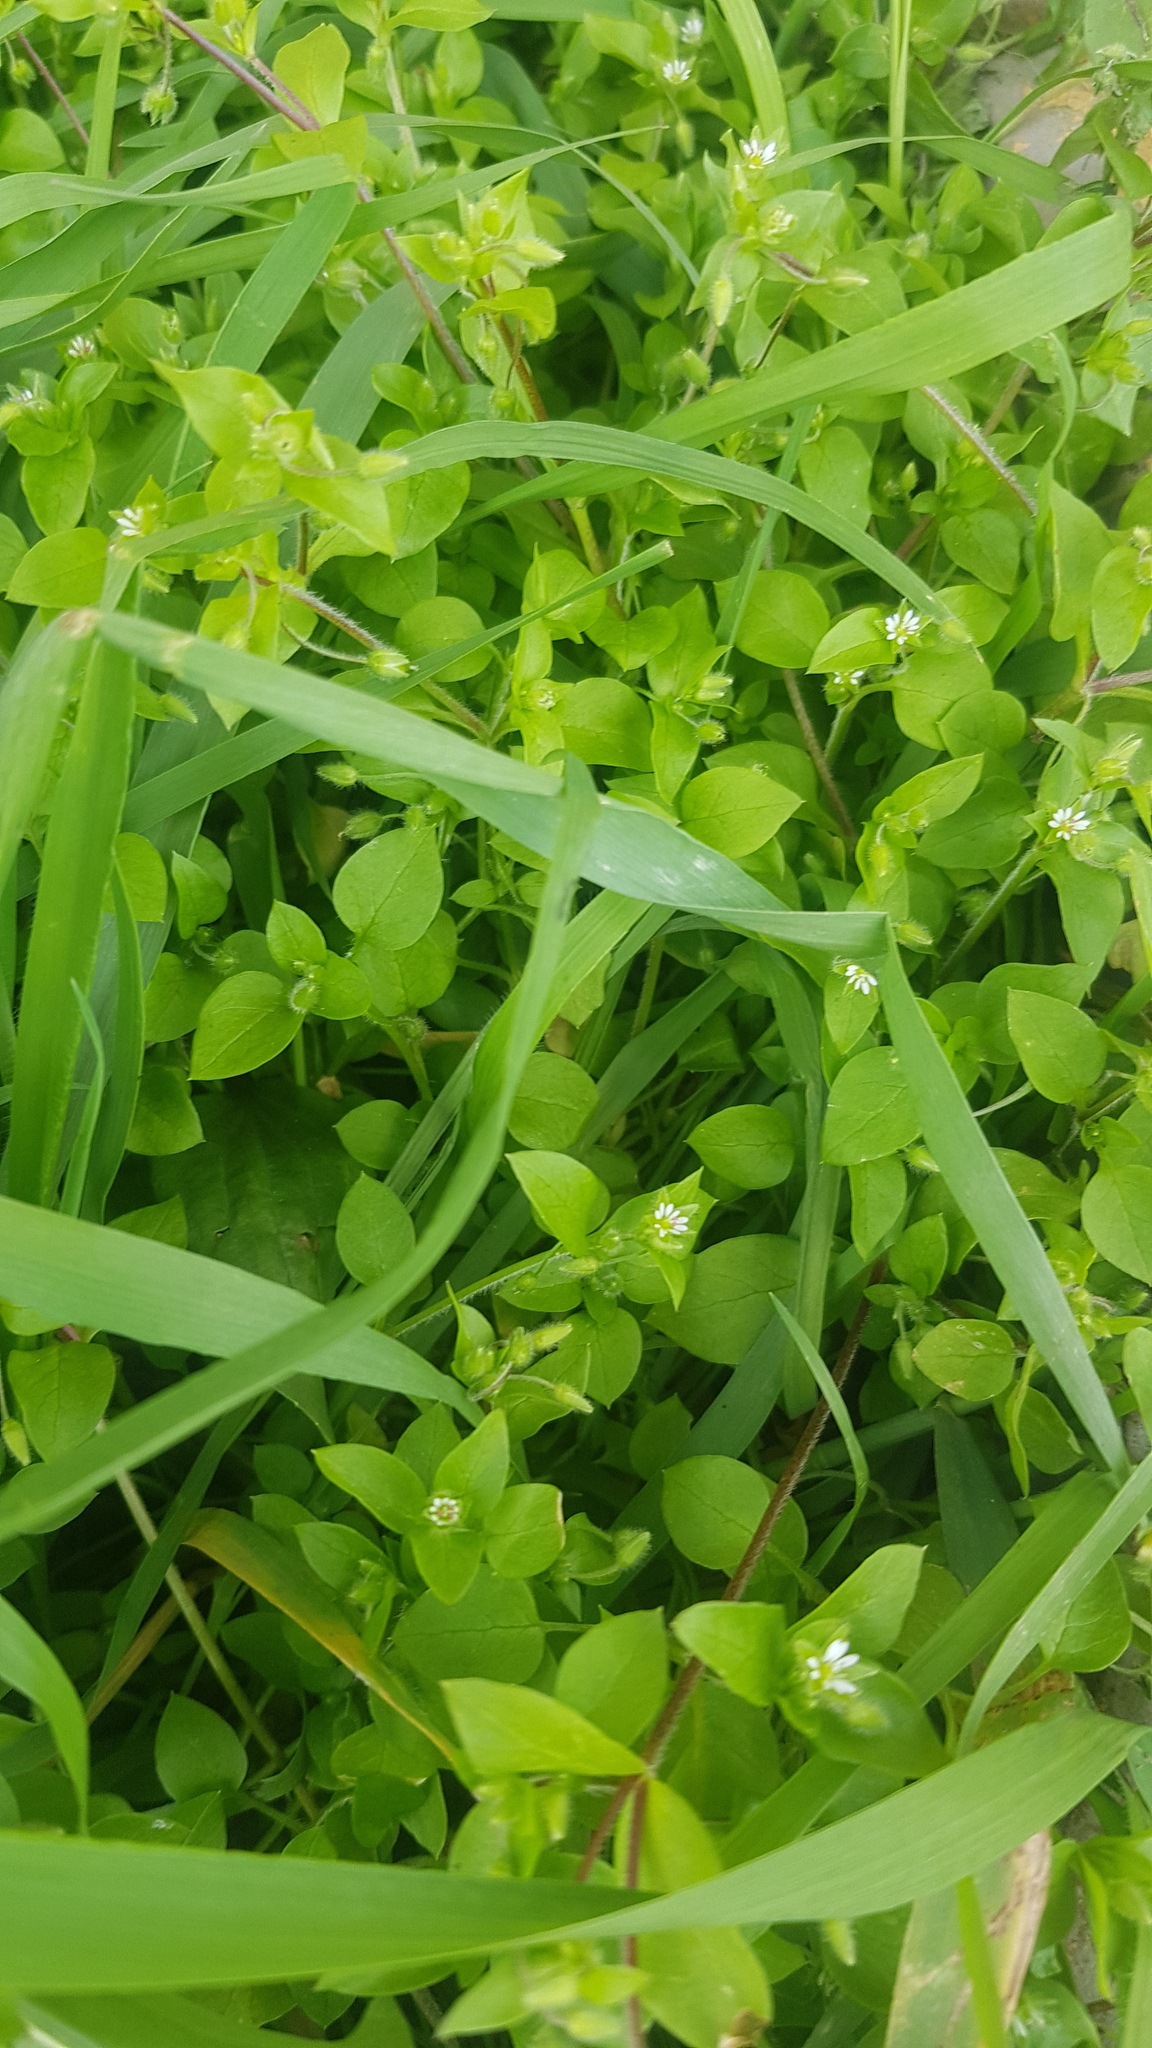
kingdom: Plantae
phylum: Tracheophyta
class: Magnoliopsida
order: Caryophyllales
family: Caryophyllaceae
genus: Stellaria
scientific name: Stellaria media
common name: Common chickweed
